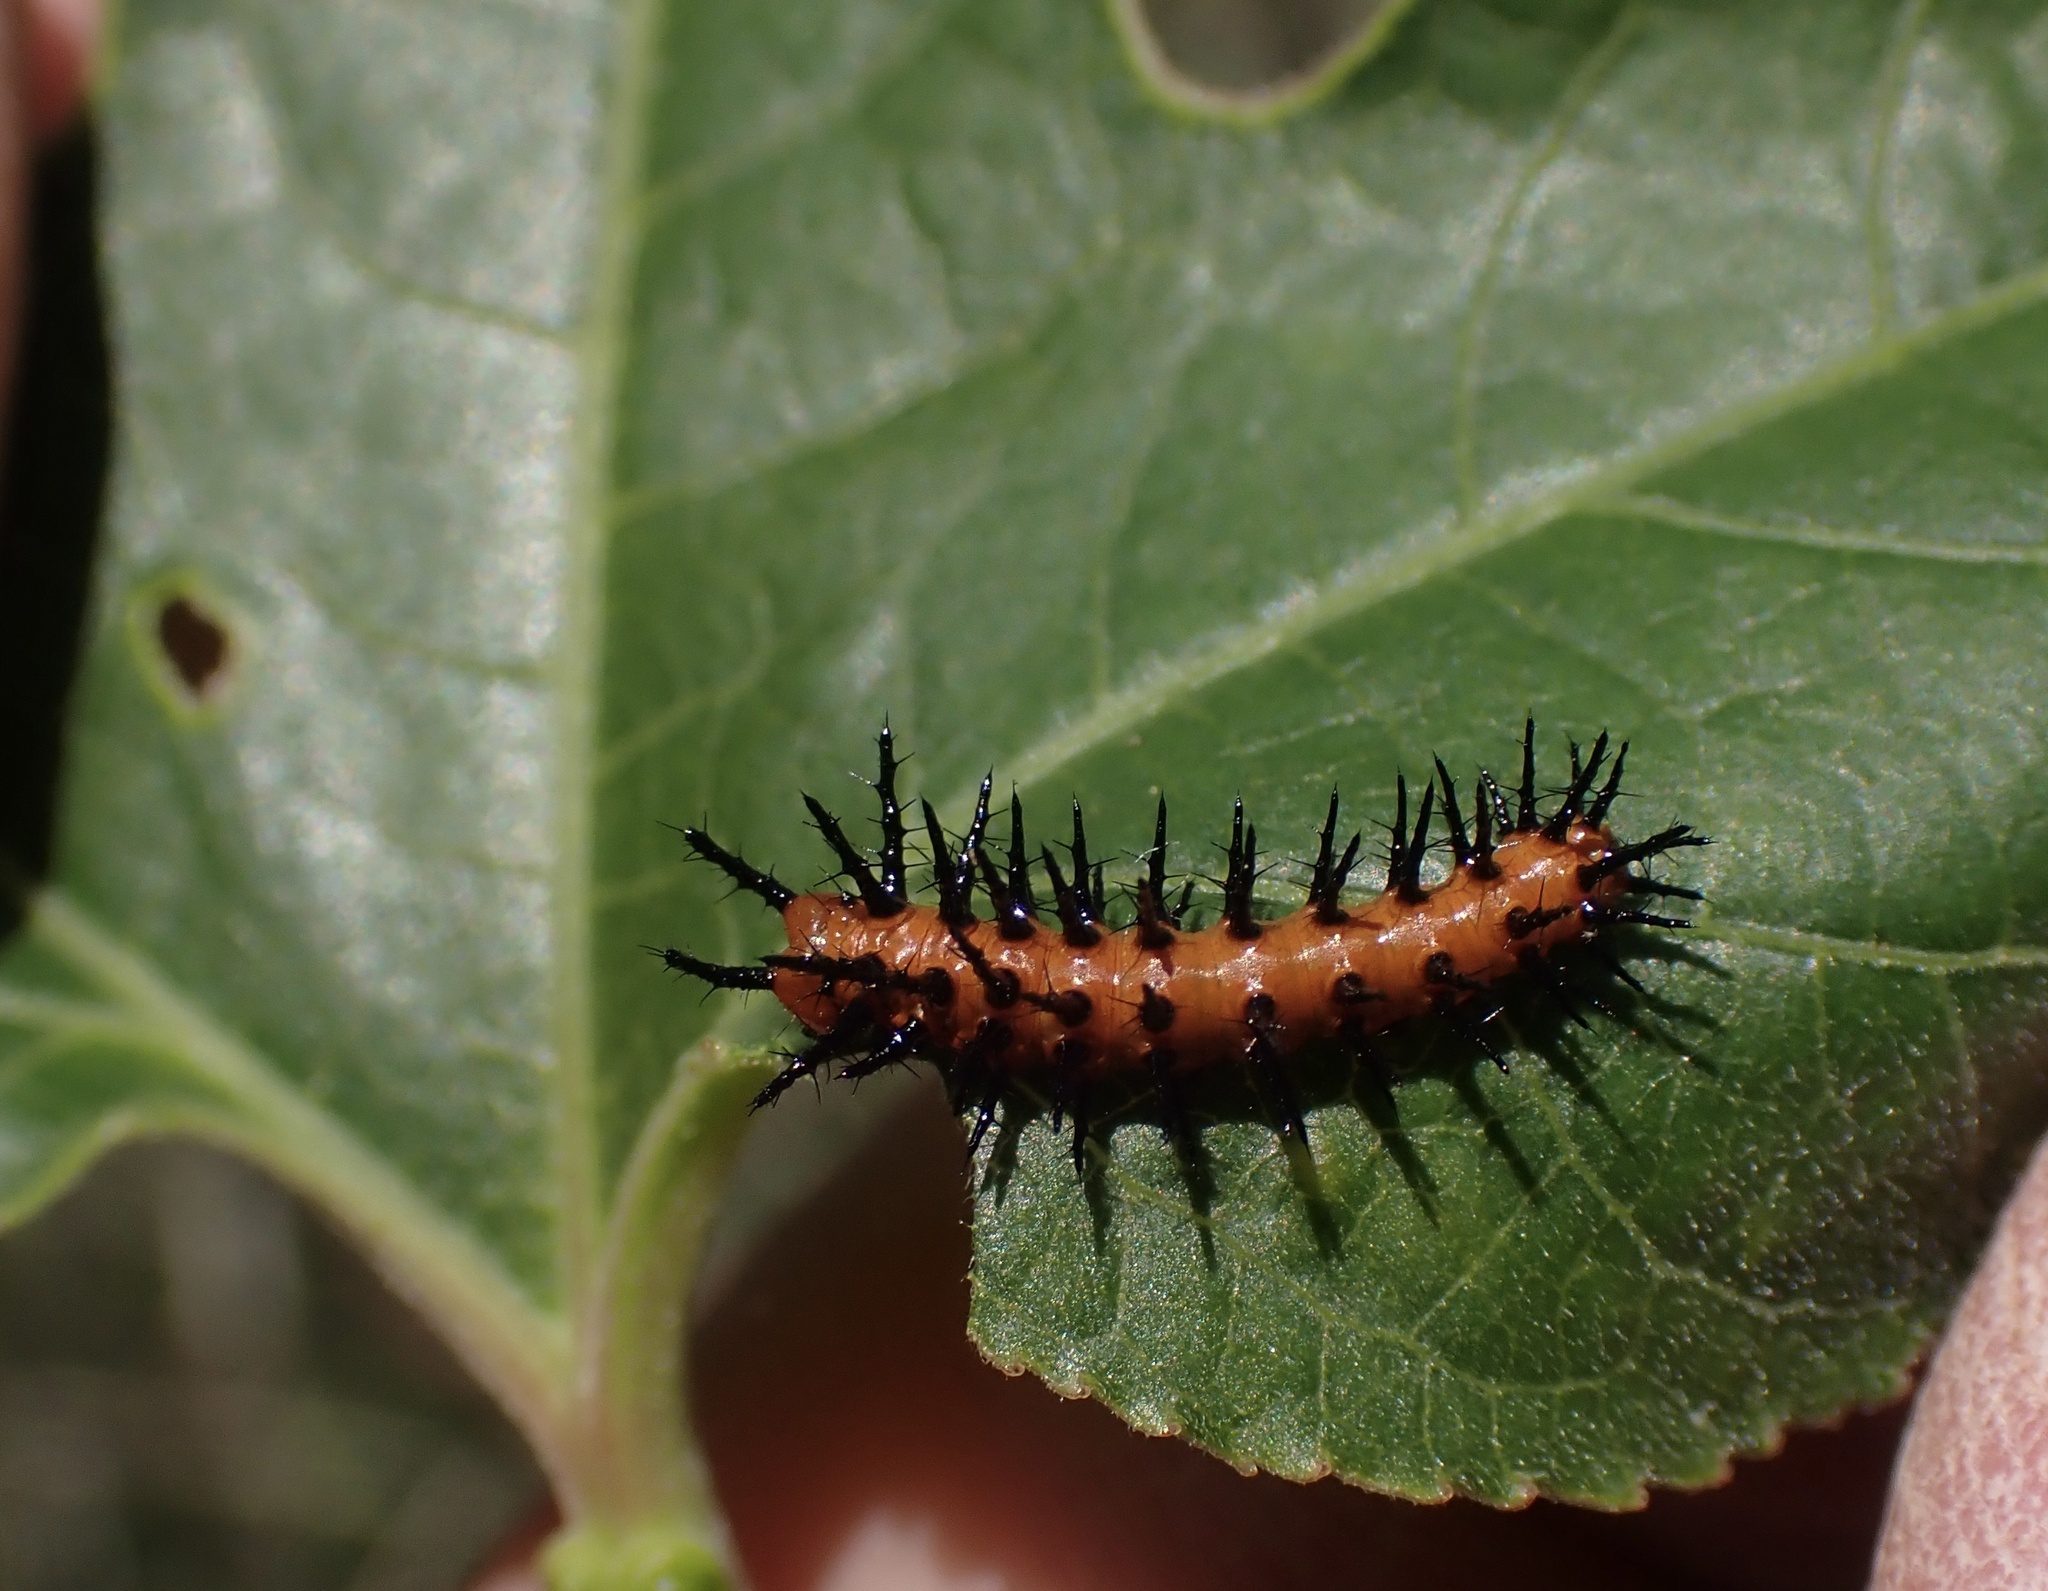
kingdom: Animalia
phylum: Arthropoda
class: Insecta
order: Lepidoptera
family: Nymphalidae
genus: Dione
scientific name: Dione vanillae
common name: Gulf fritillary
